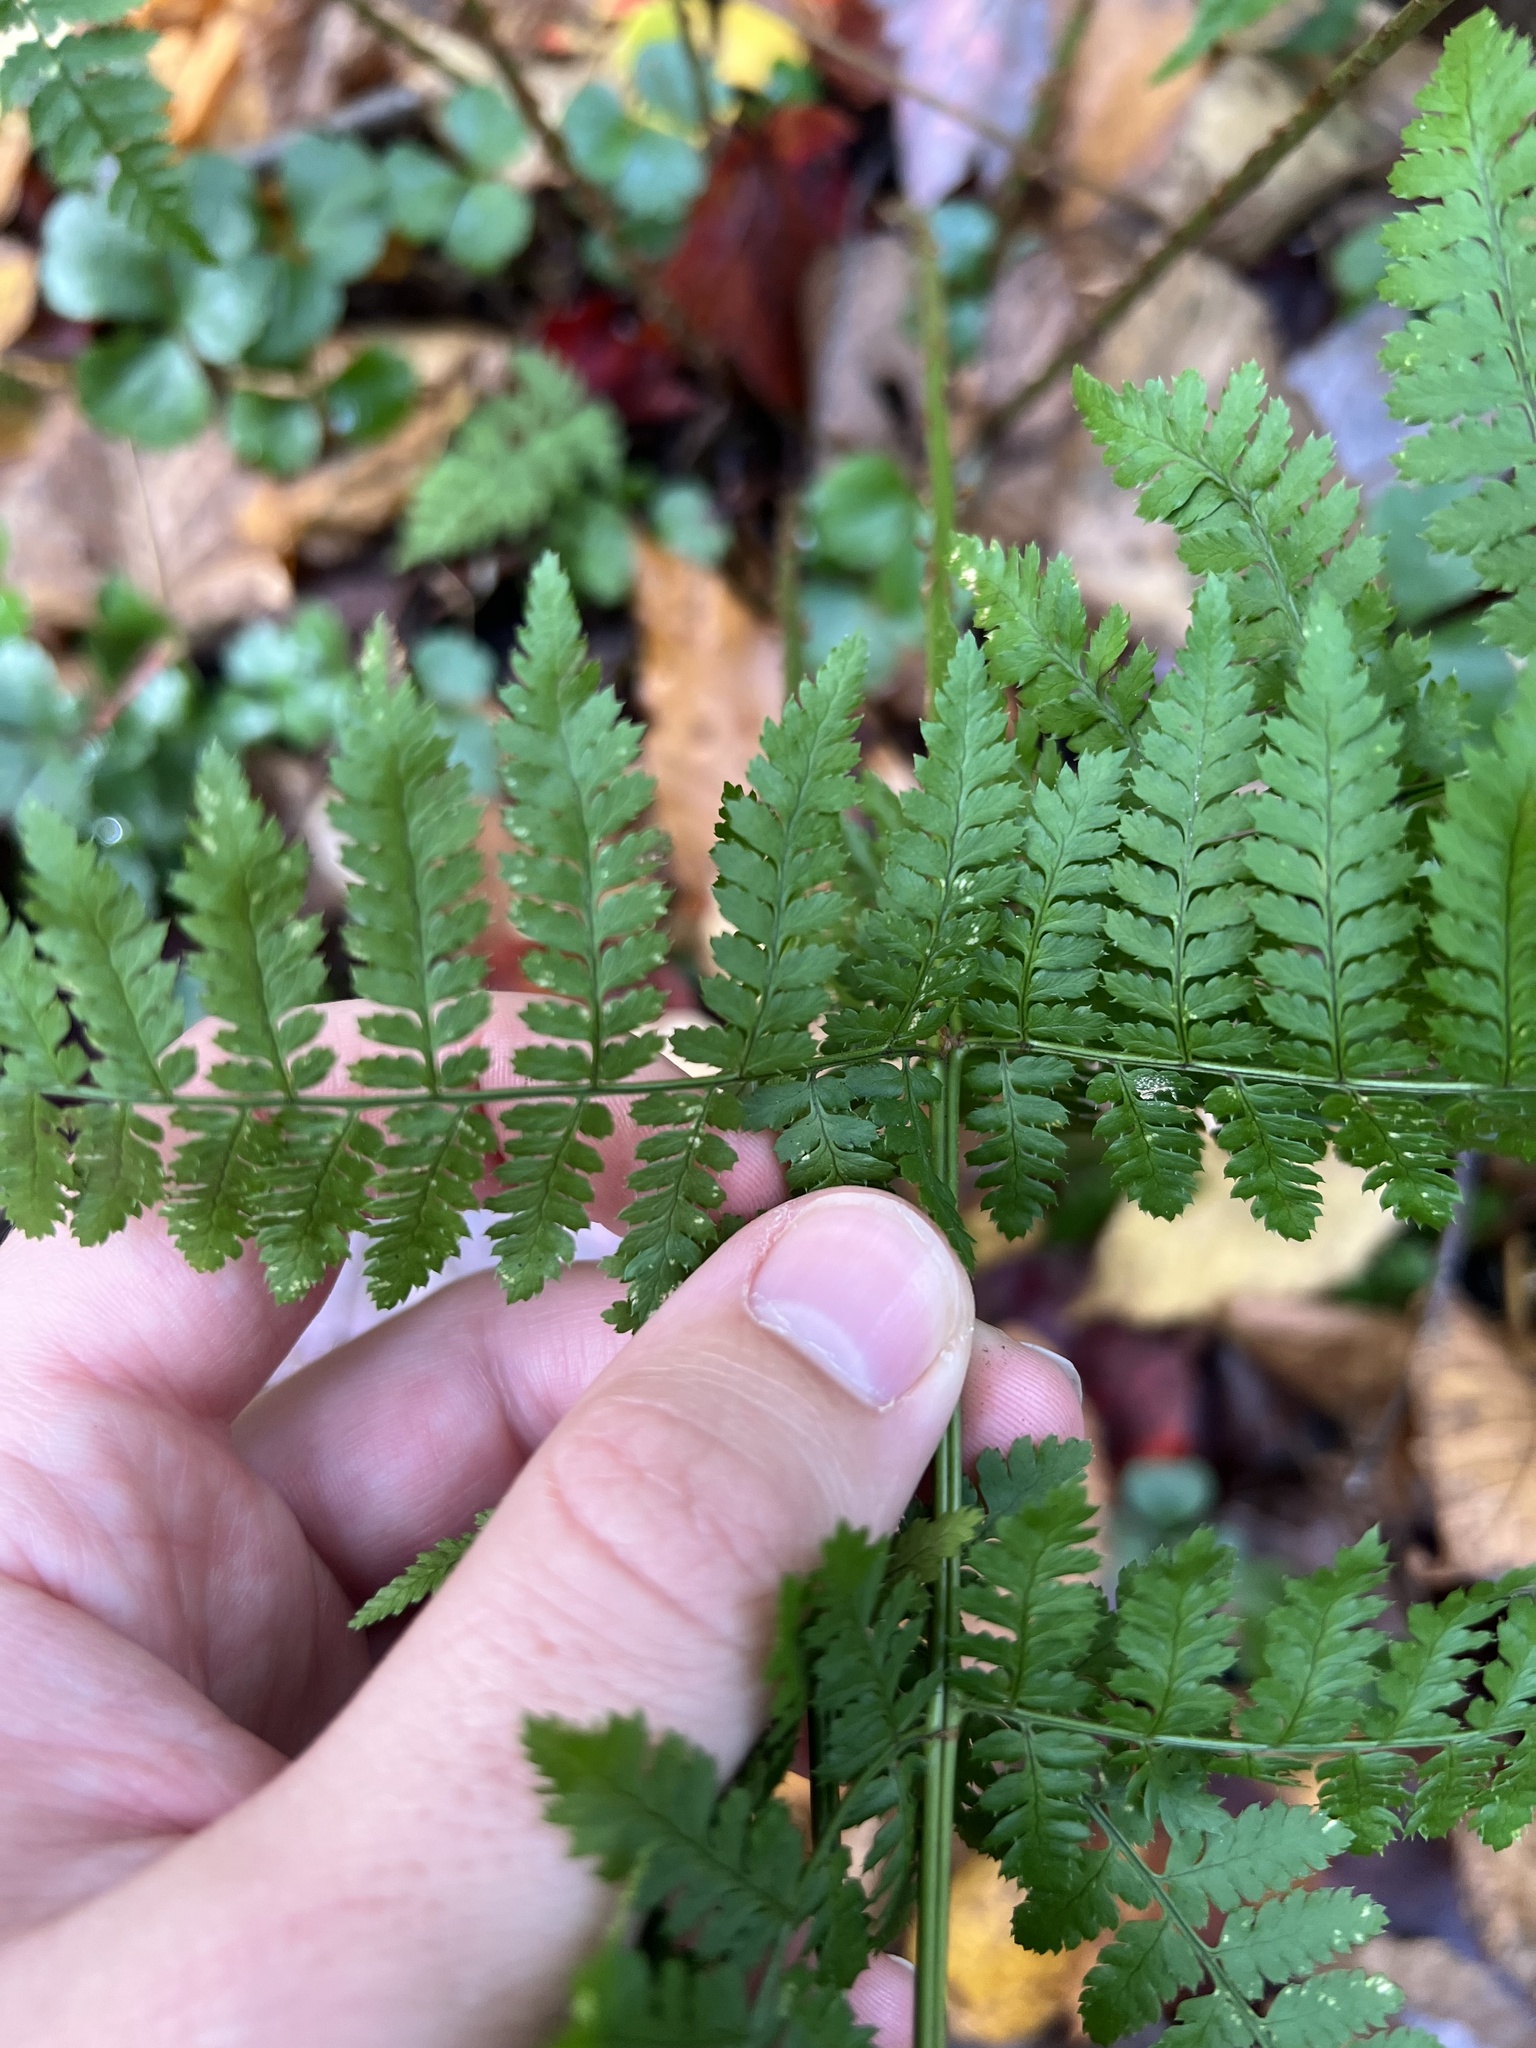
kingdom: Plantae
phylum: Tracheophyta
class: Polypodiopsida
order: Polypodiales
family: Dryopteridaceae
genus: Dryopteris
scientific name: Dryopteris intermedia
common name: Evergreen wood fern
